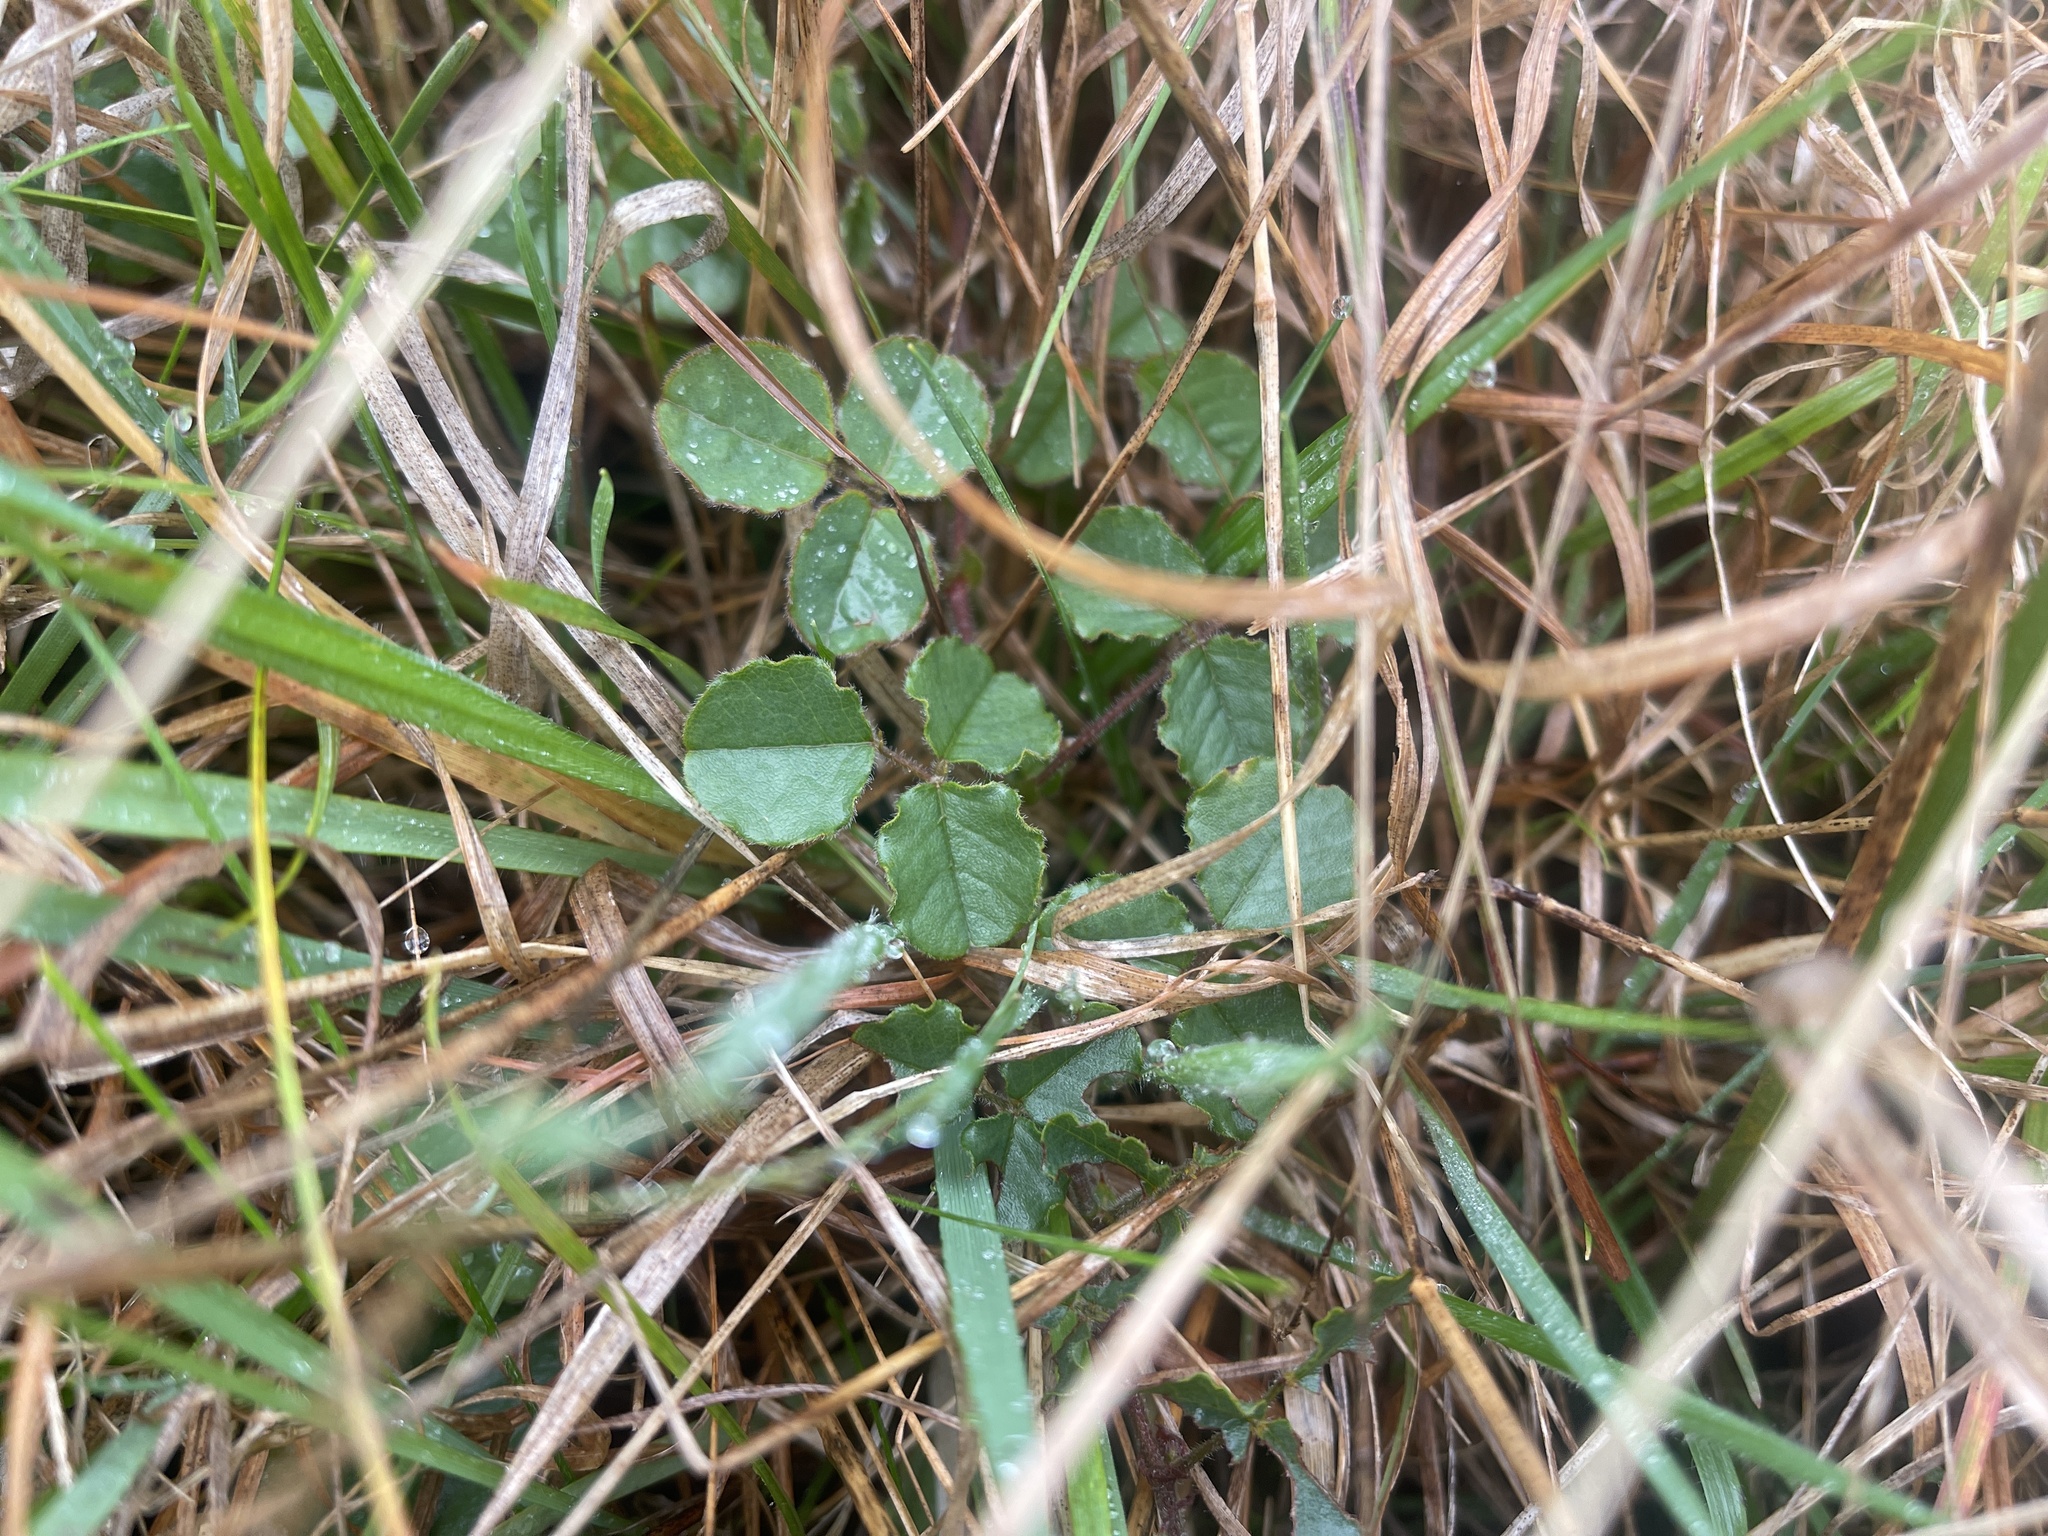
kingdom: Plantae
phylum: Tracheophyta
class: Magnoliopsida
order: Fabales
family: Fabaceae
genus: Kennedia
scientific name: Kennedia prostrata
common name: Running-postman
